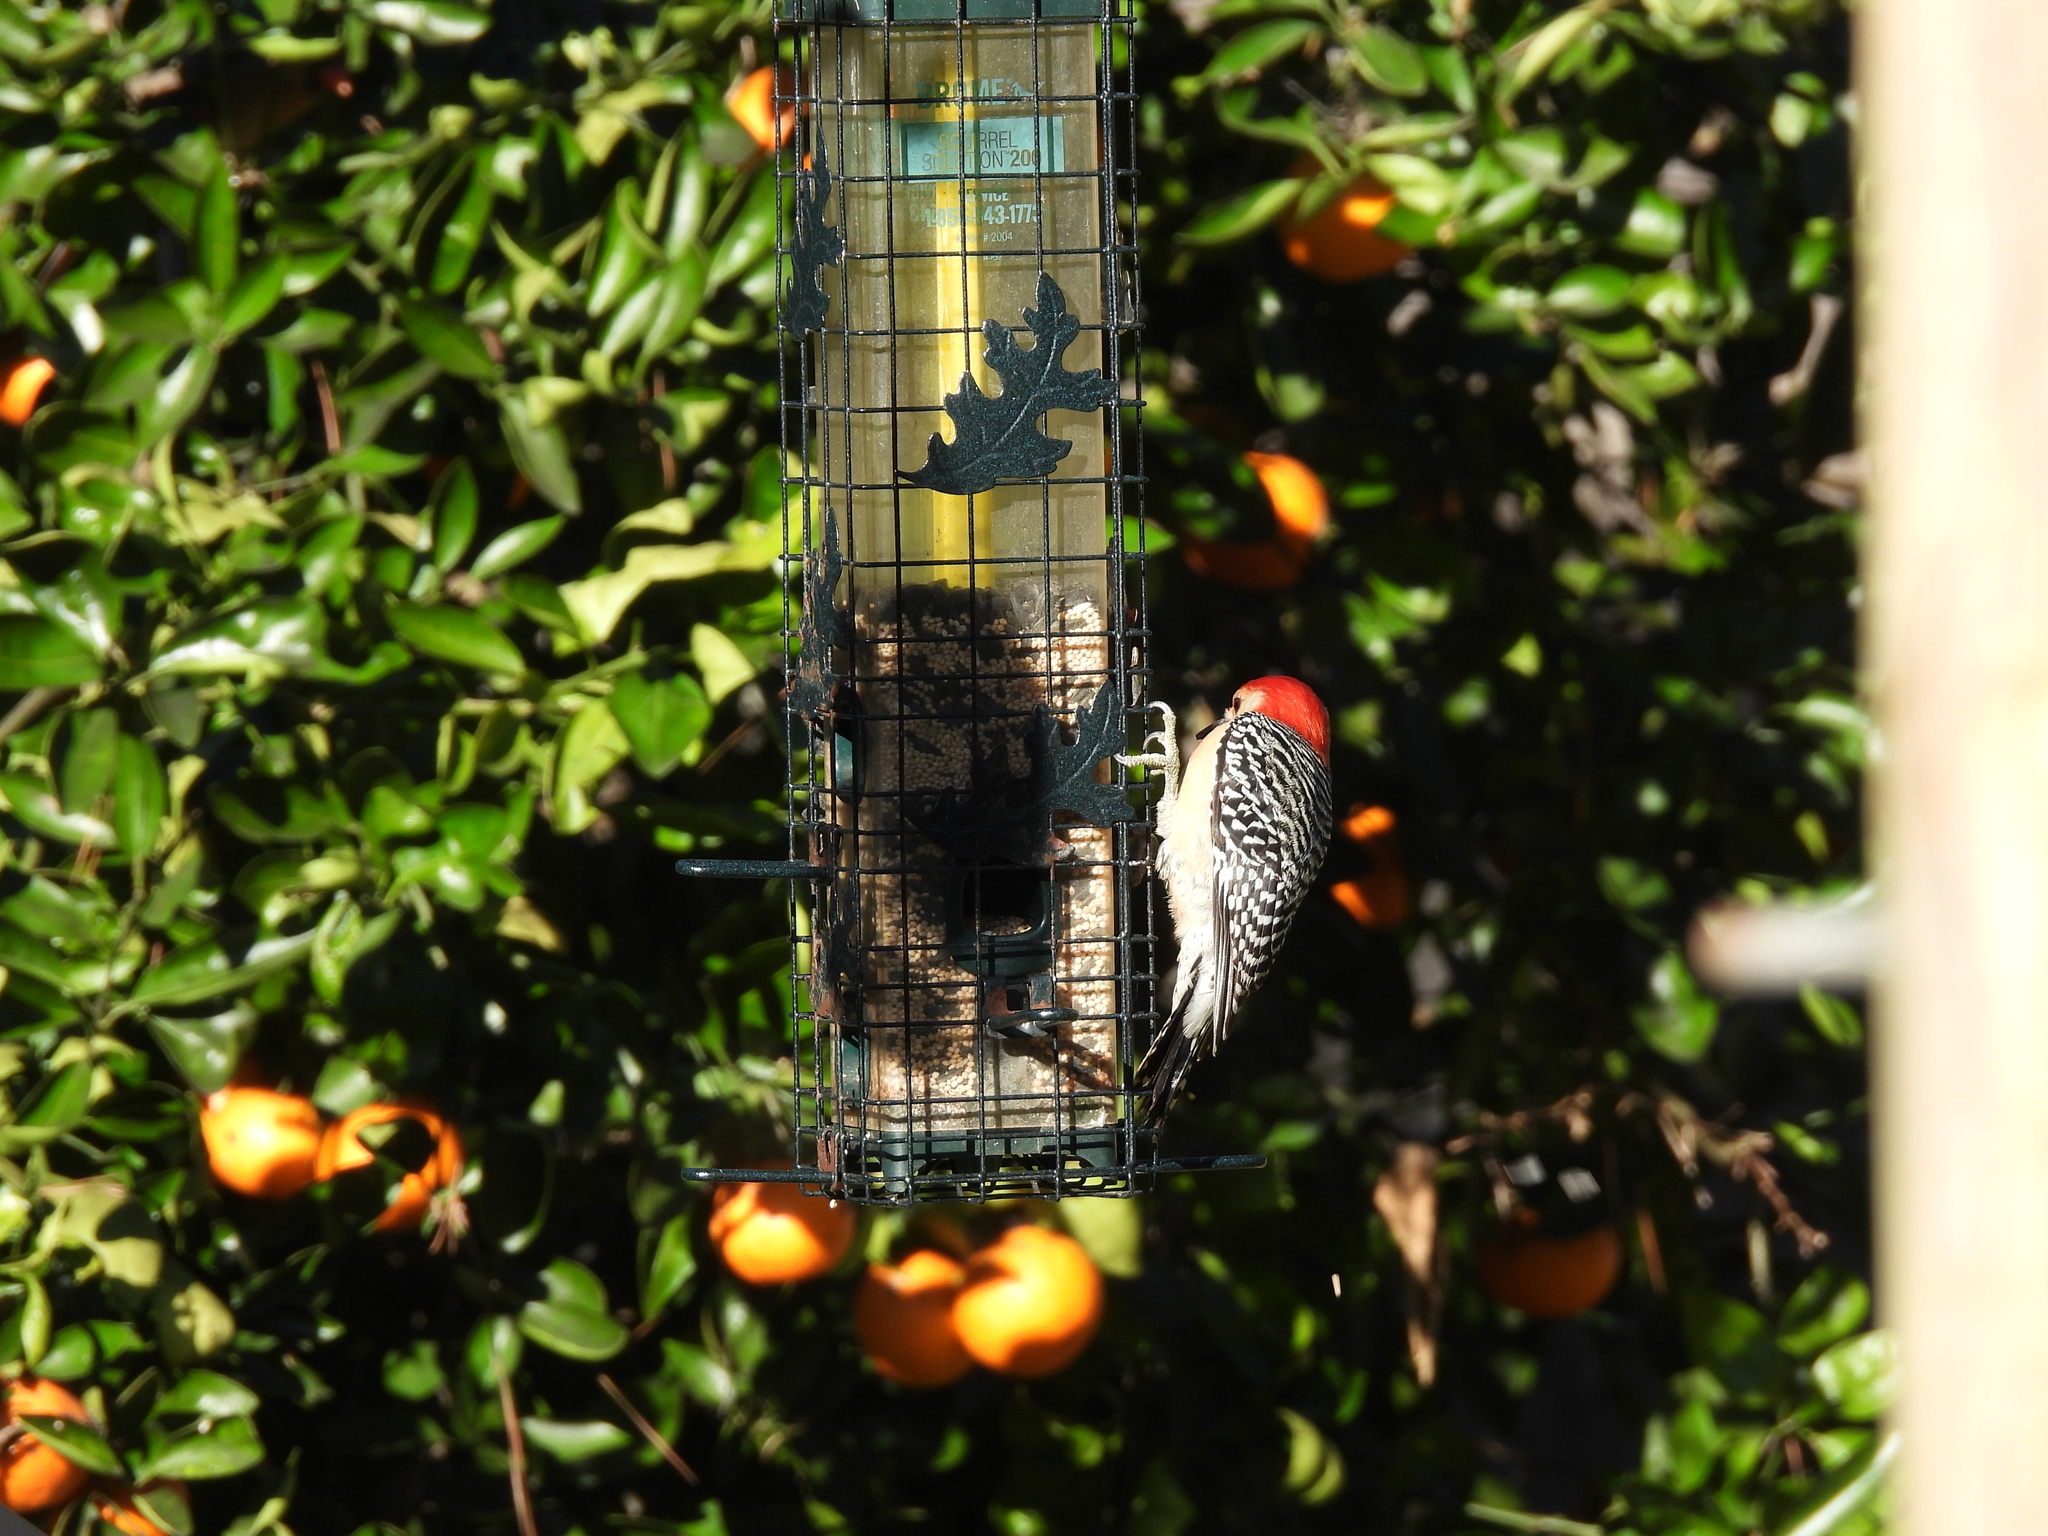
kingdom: Animalia
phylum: Chordata
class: Aves
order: Piciformes
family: Picidae
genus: Melanerpes
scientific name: Melanerpes carolinus
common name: Red-bellied woodpecker
